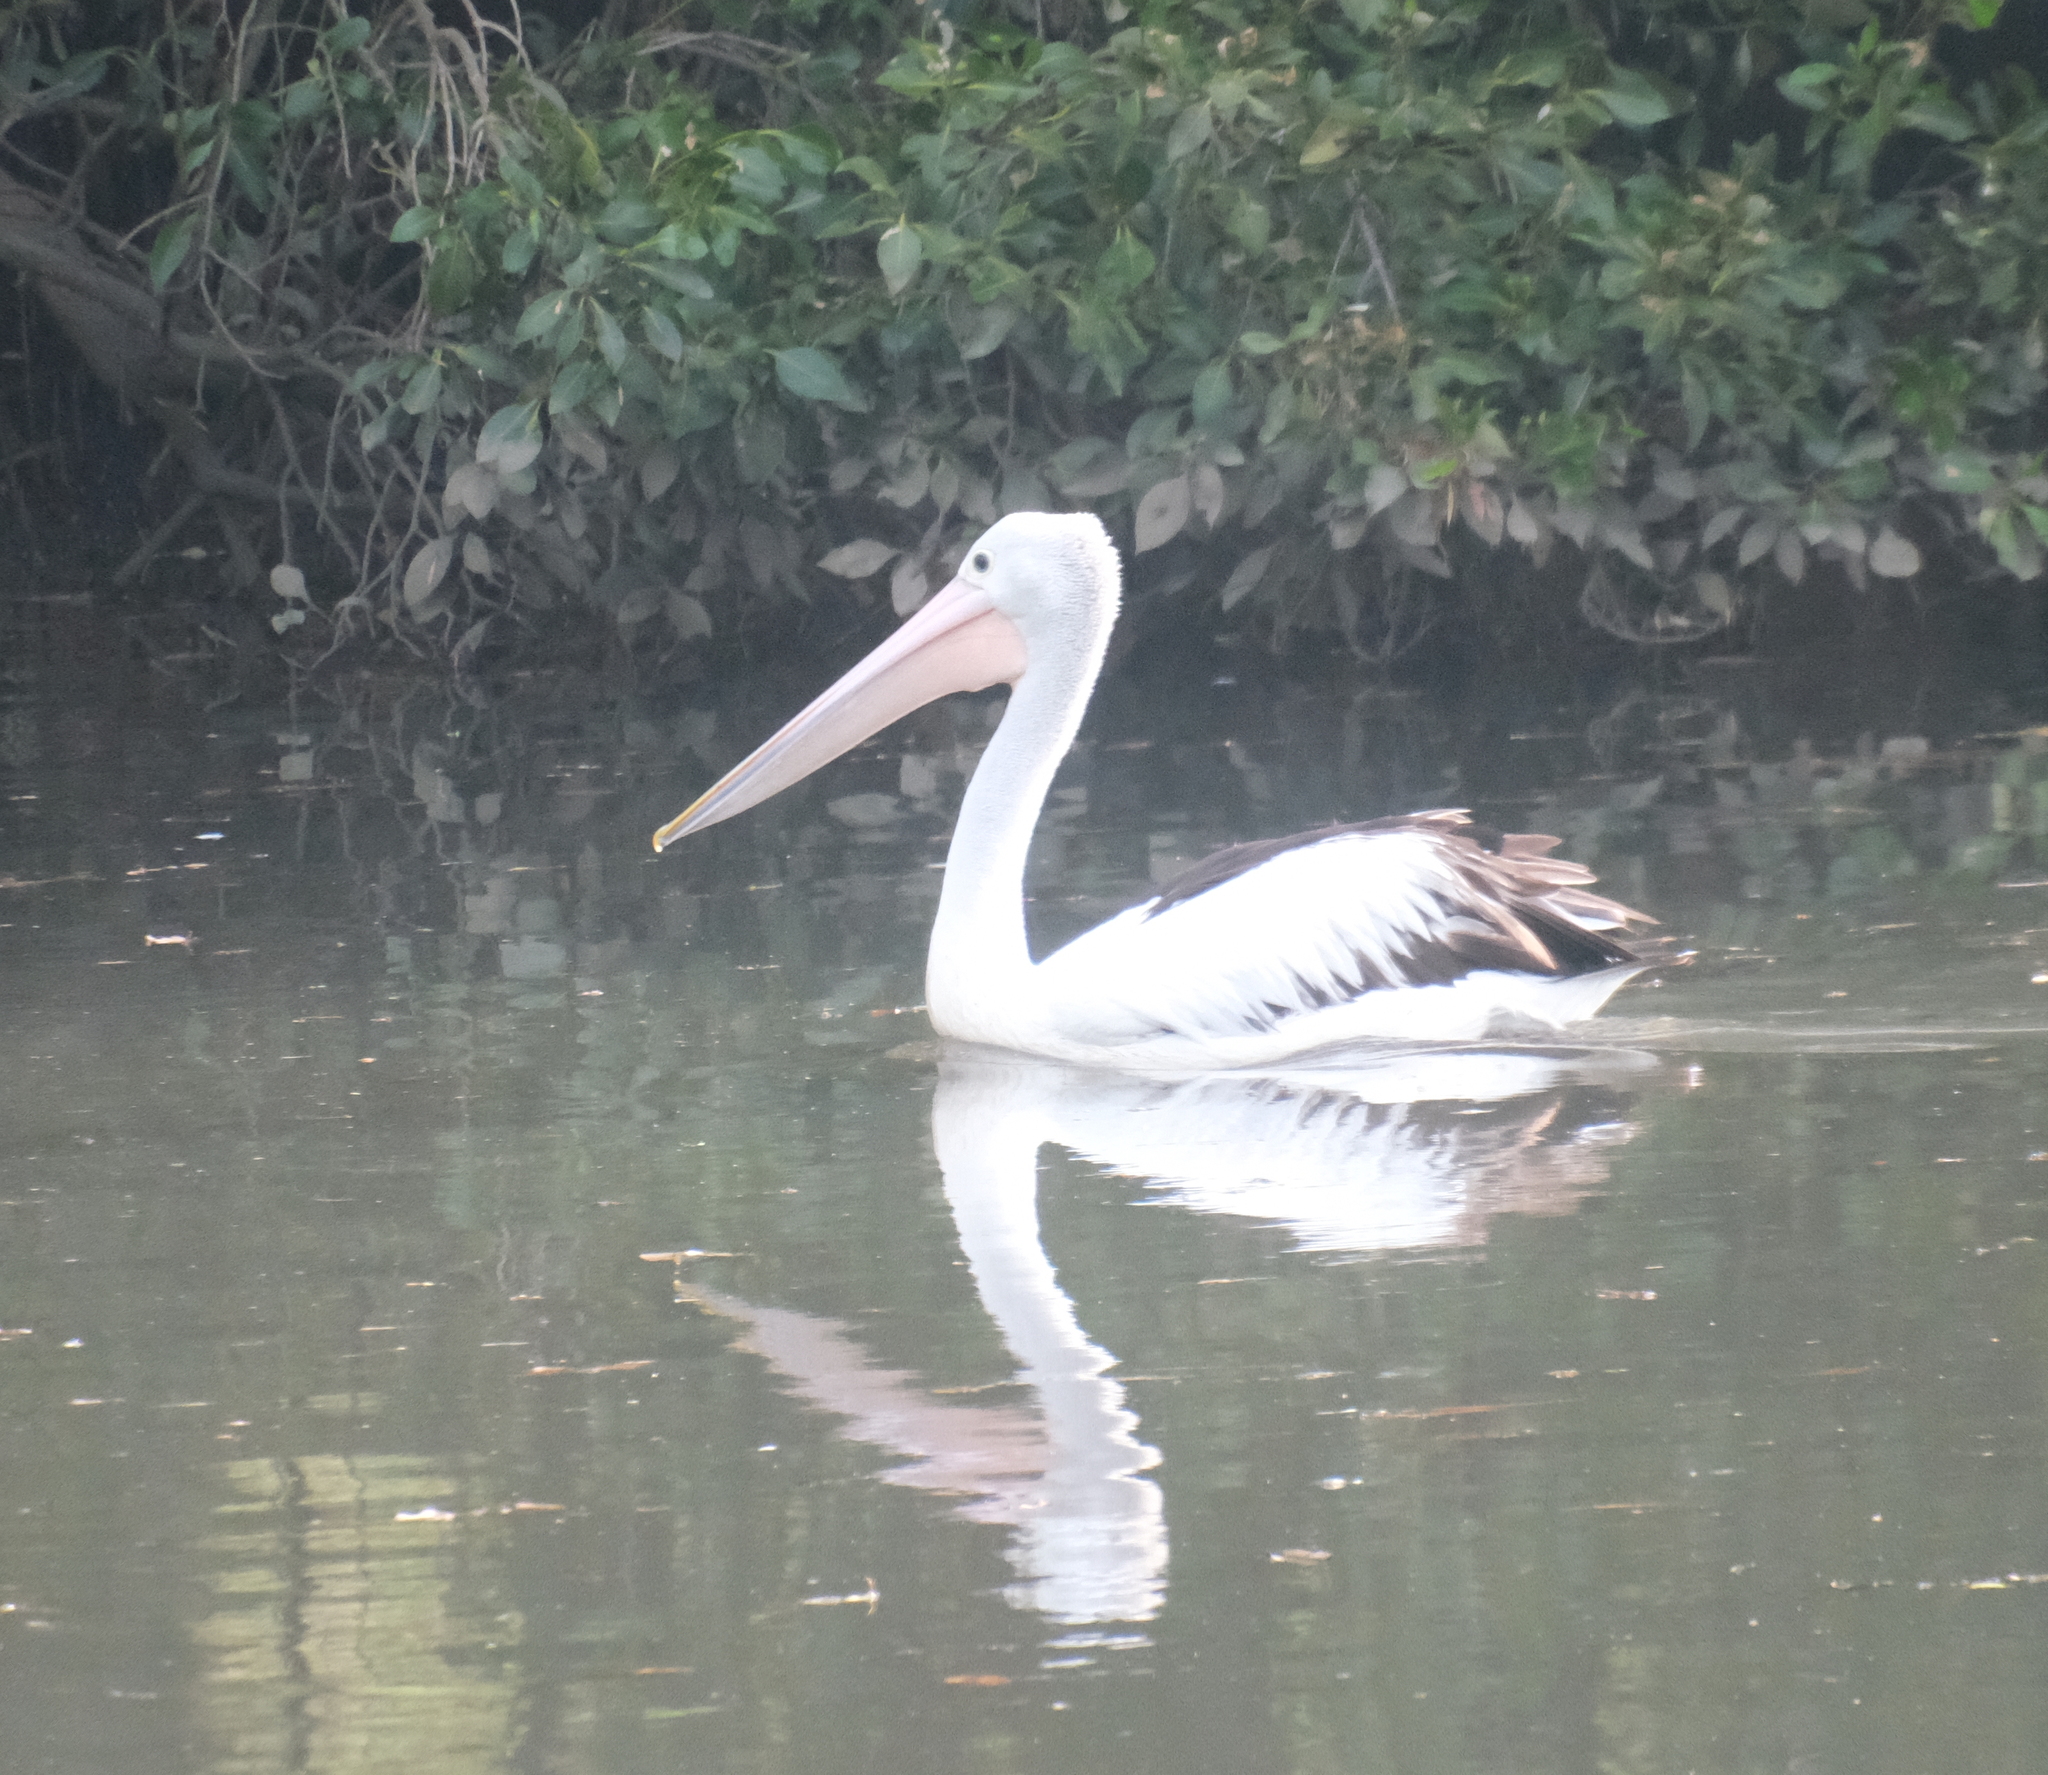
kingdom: Animalia
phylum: Chordata
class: Aves
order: Pelecaniformes
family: Pelecanidae
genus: Pelecanus
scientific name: Pelecanus conspicillatus
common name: Australian pelican
